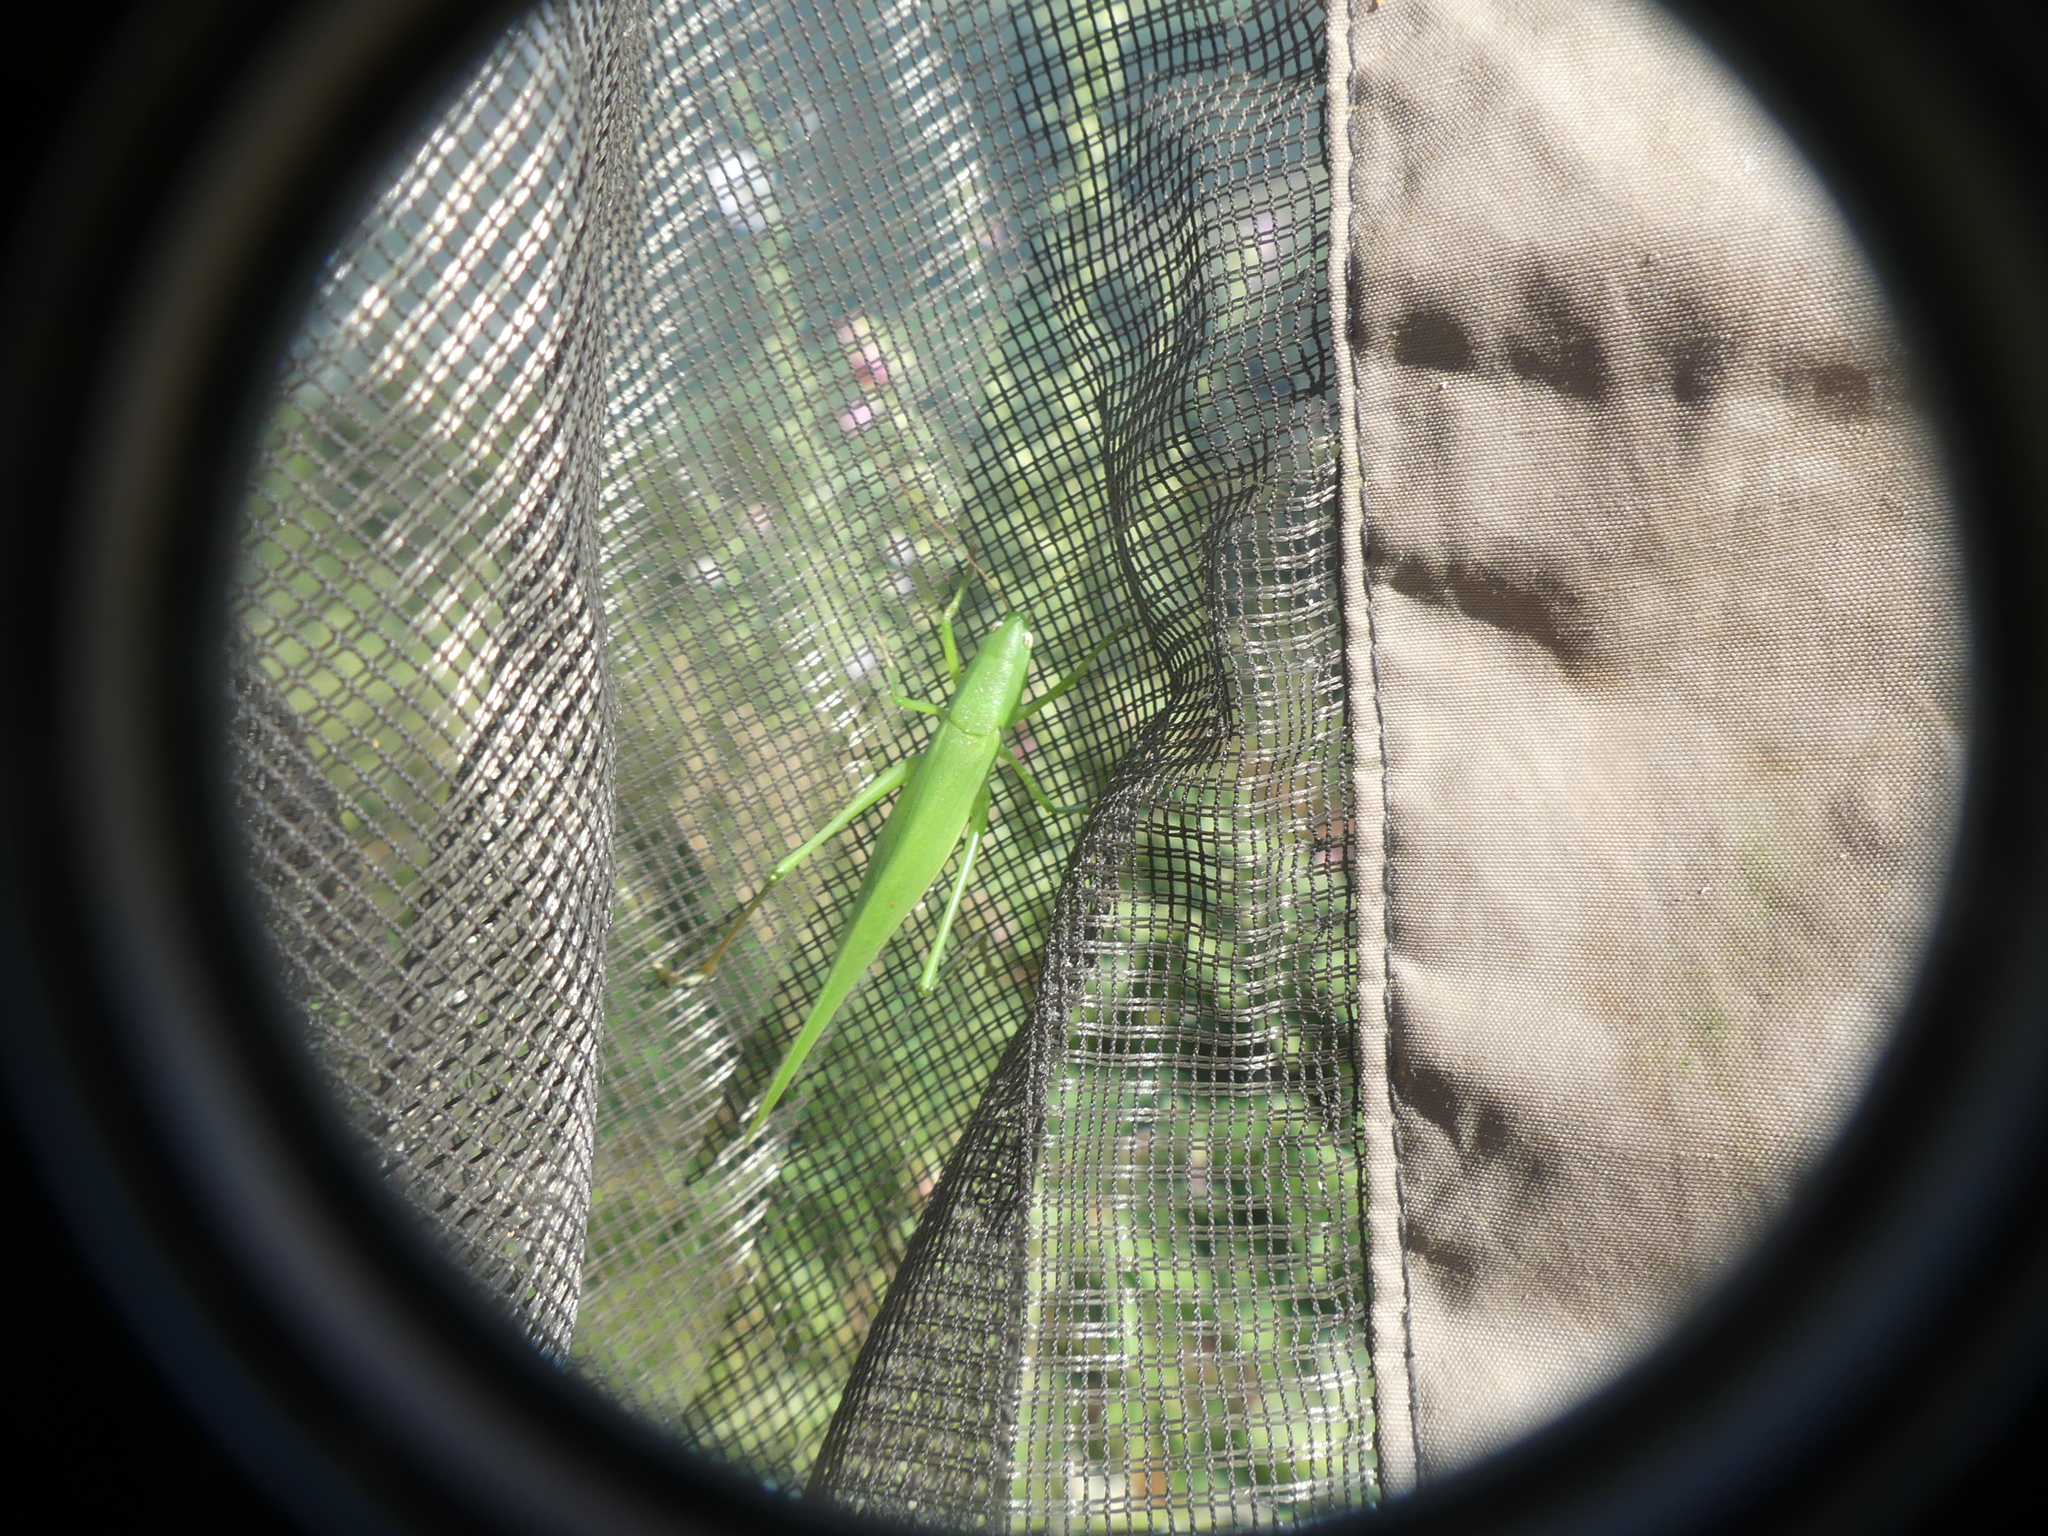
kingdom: Animalia
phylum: Arthropoda
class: Insecta
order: Orthoptera
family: Tettigoniidae
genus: Ruspolia
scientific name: Ruspolia nitidula
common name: Large conehead
